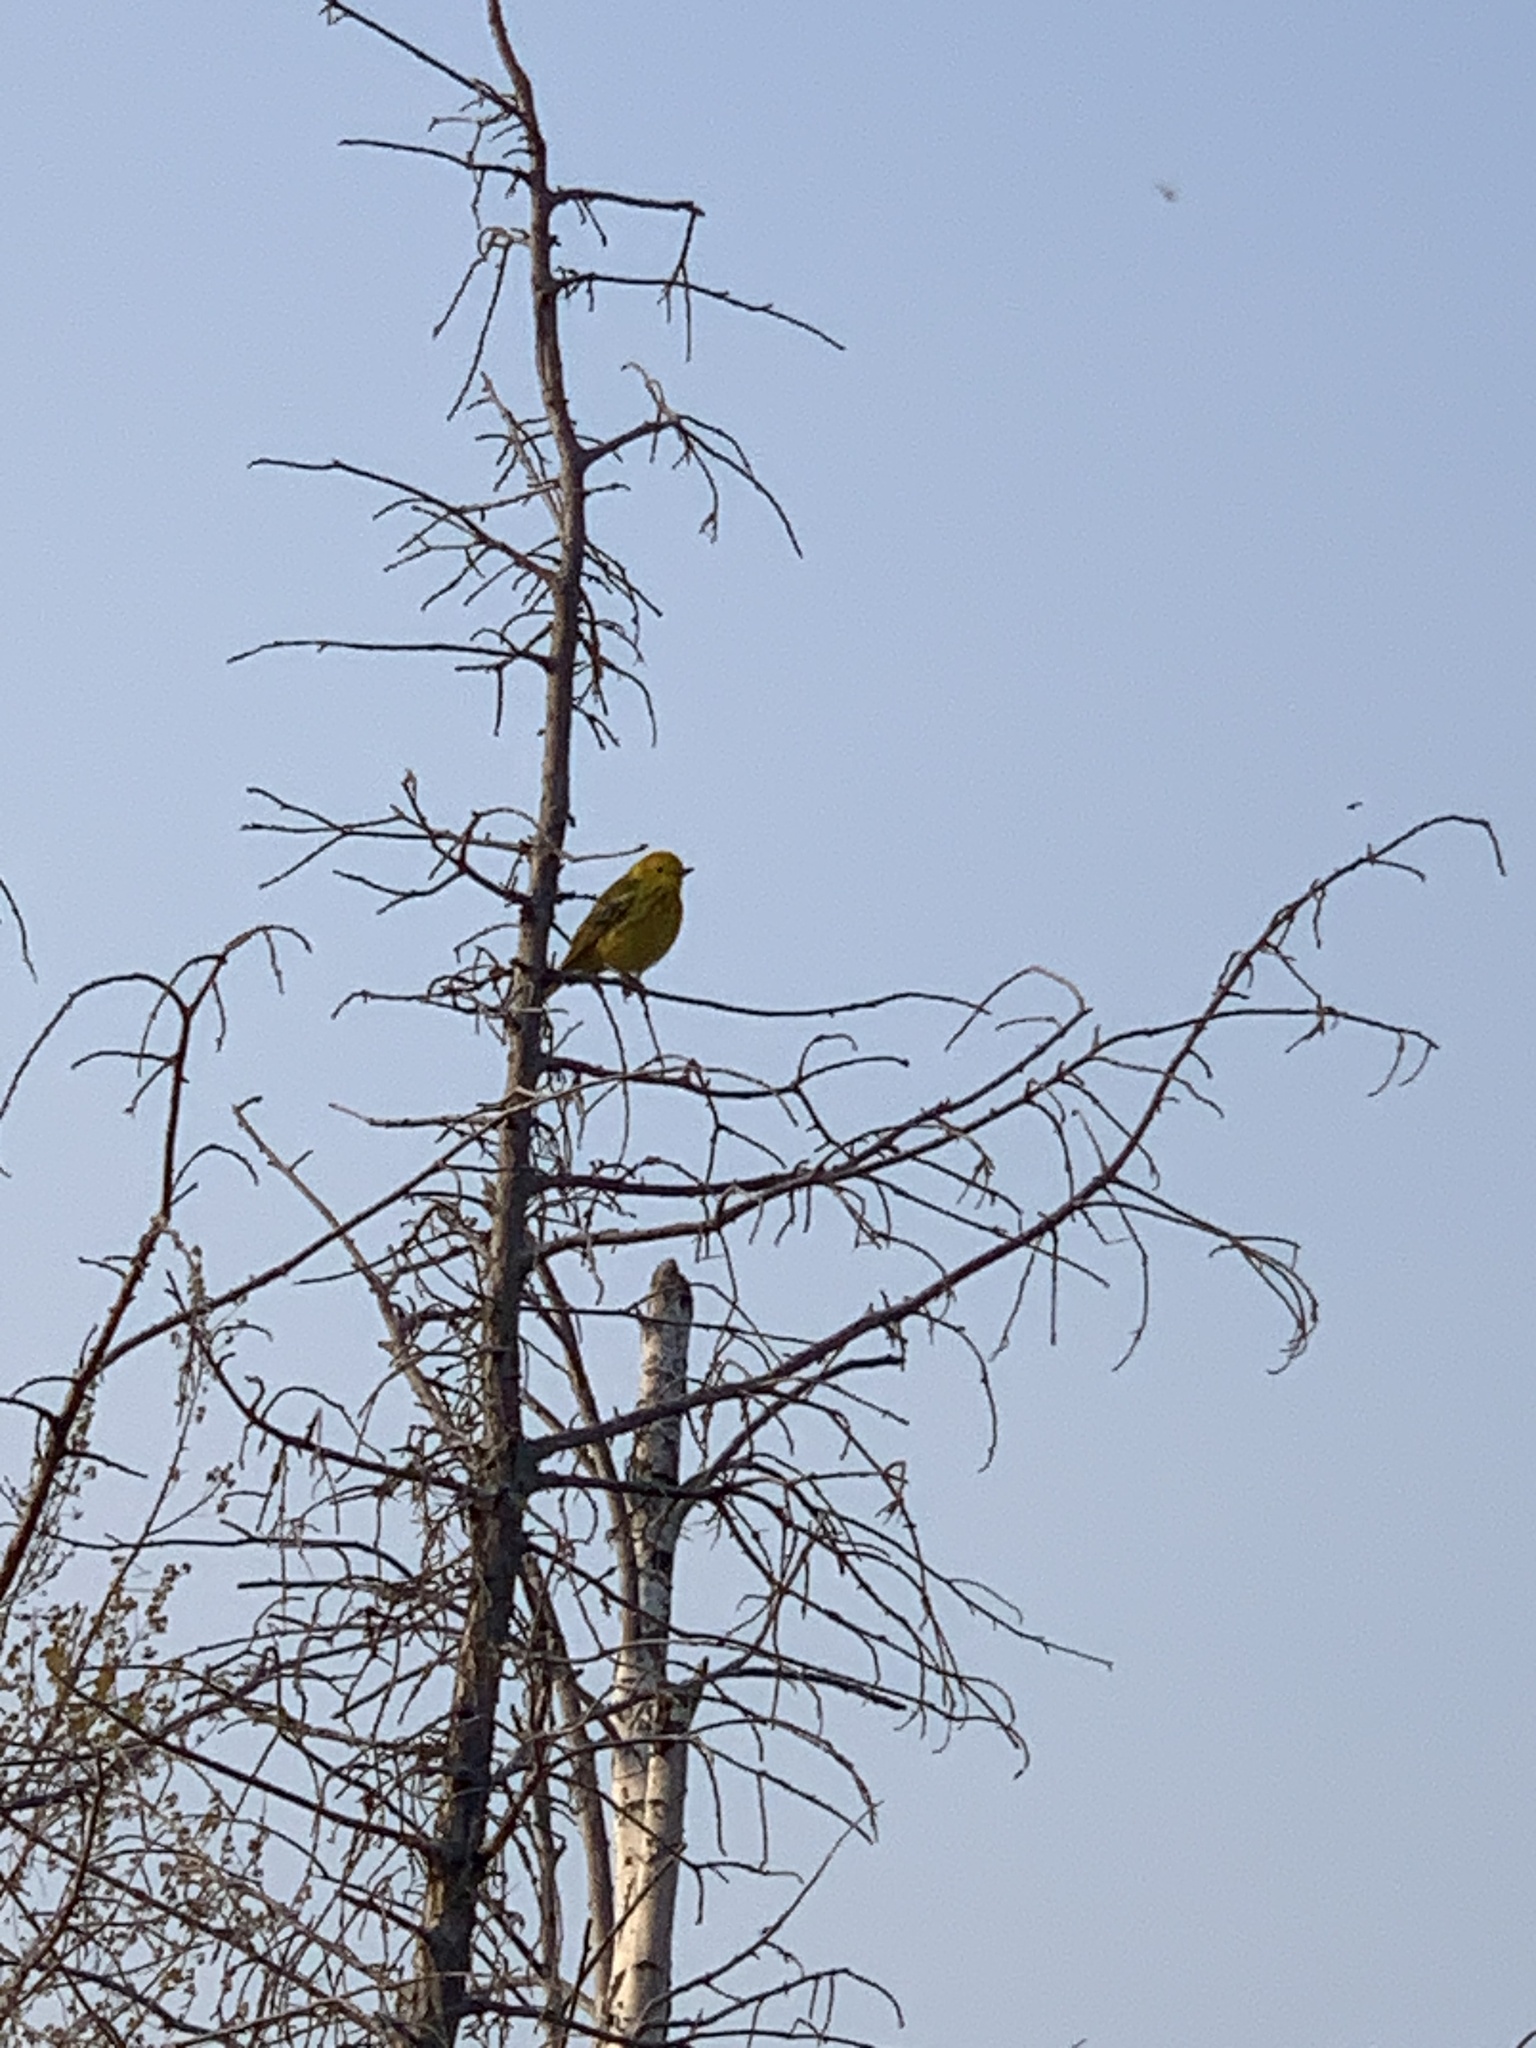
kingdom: Animalia
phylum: Chordata
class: Aves
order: Passeriformes
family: Parulidae
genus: Setophaga
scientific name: Setophaga petechia
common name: Yellow warbler
